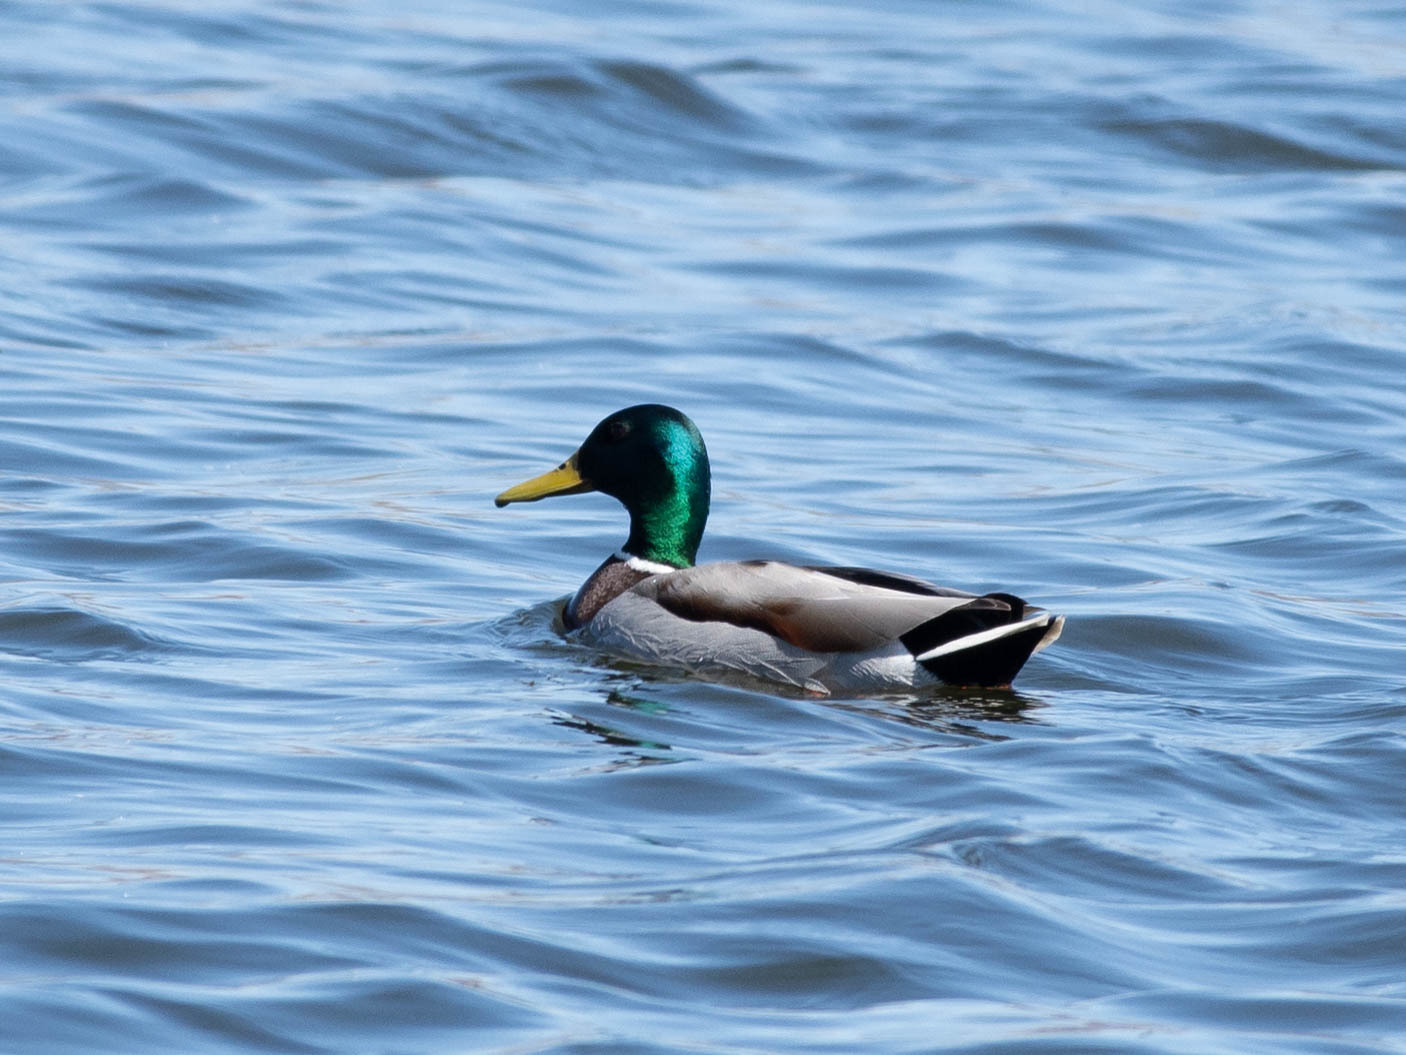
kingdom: Animalia
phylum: Chordata
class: Aves
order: Anseriformes
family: Anatidae
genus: Anas
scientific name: Anas platyrhynchos
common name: Mallard
